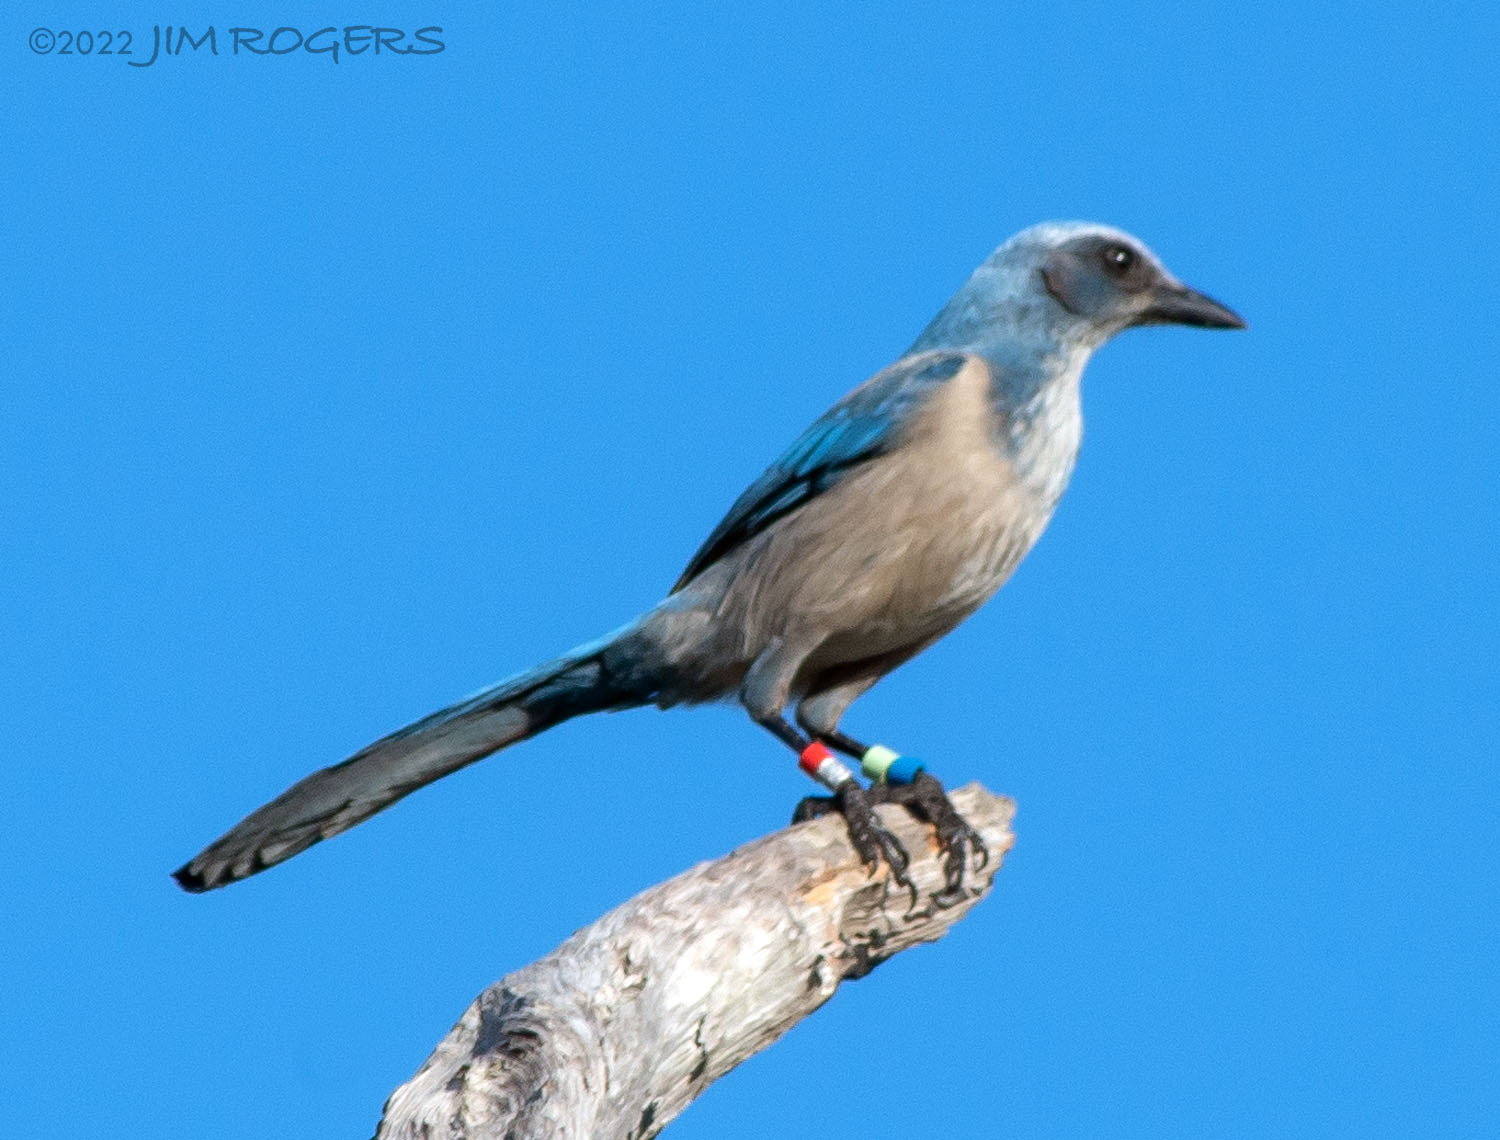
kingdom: Animalia
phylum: Chordata
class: Aves
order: Passeriformes
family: Corvidae
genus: Aphelocoma
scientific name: Aphelocoma coerulescens
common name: Florida scrub jay
